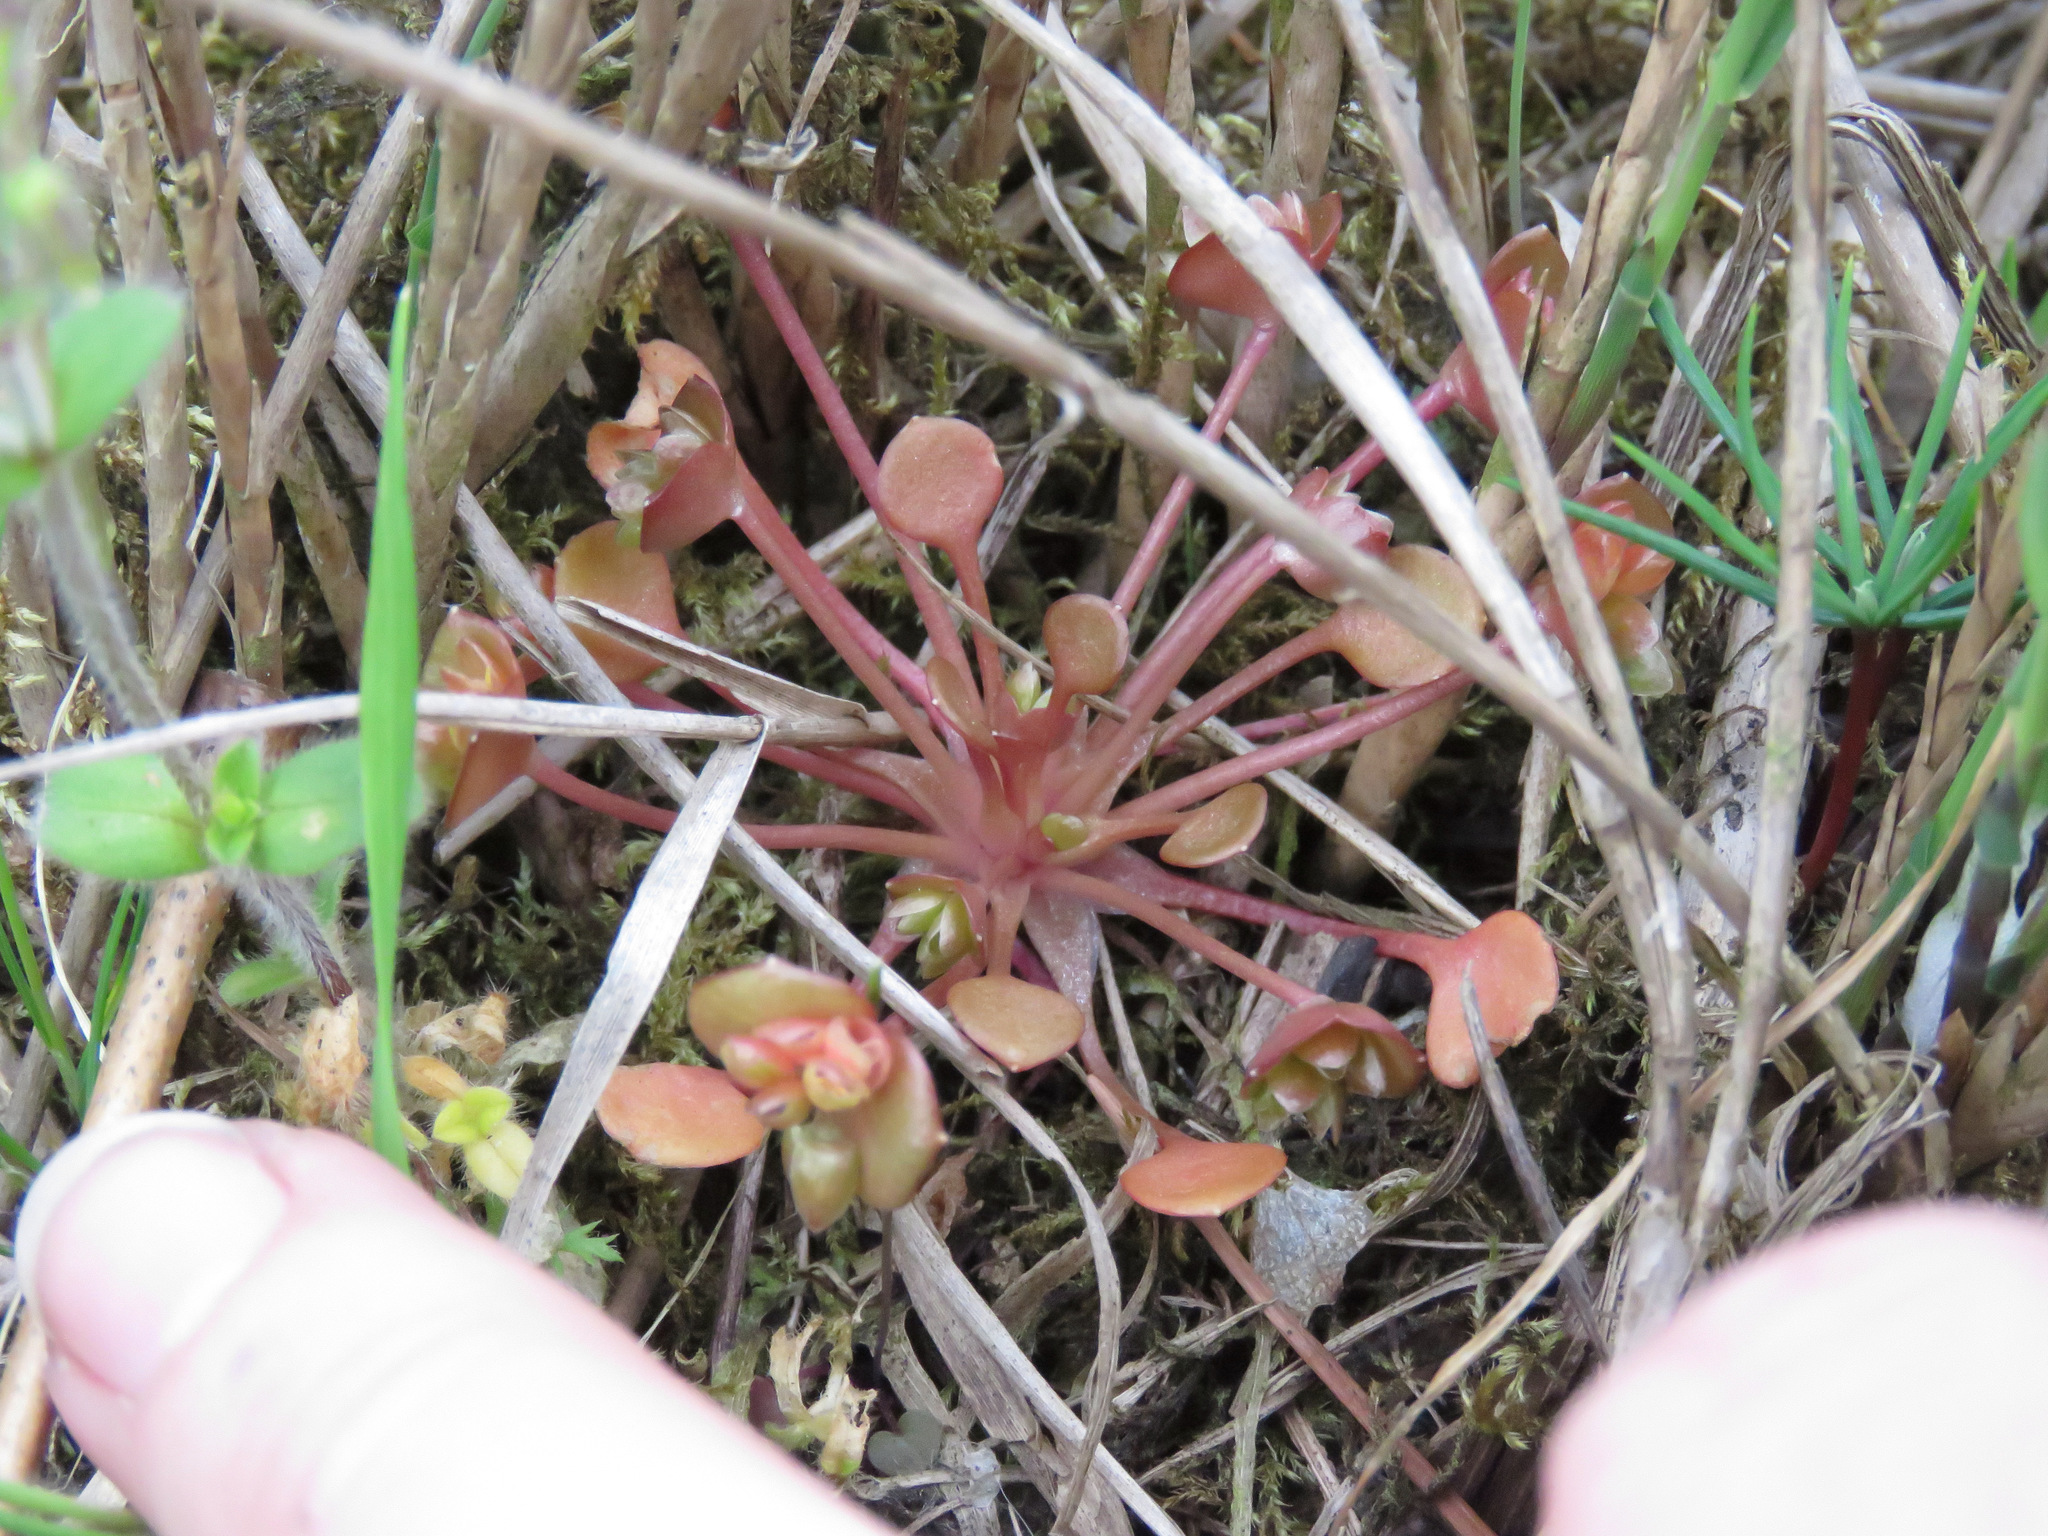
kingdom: Plantae
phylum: Tracheophyta
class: Magnoliopsida
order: Caryophyllales
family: Montiaceae
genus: Claytonia
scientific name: Claytonia rubra
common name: Erubescent miner's-lettuce
